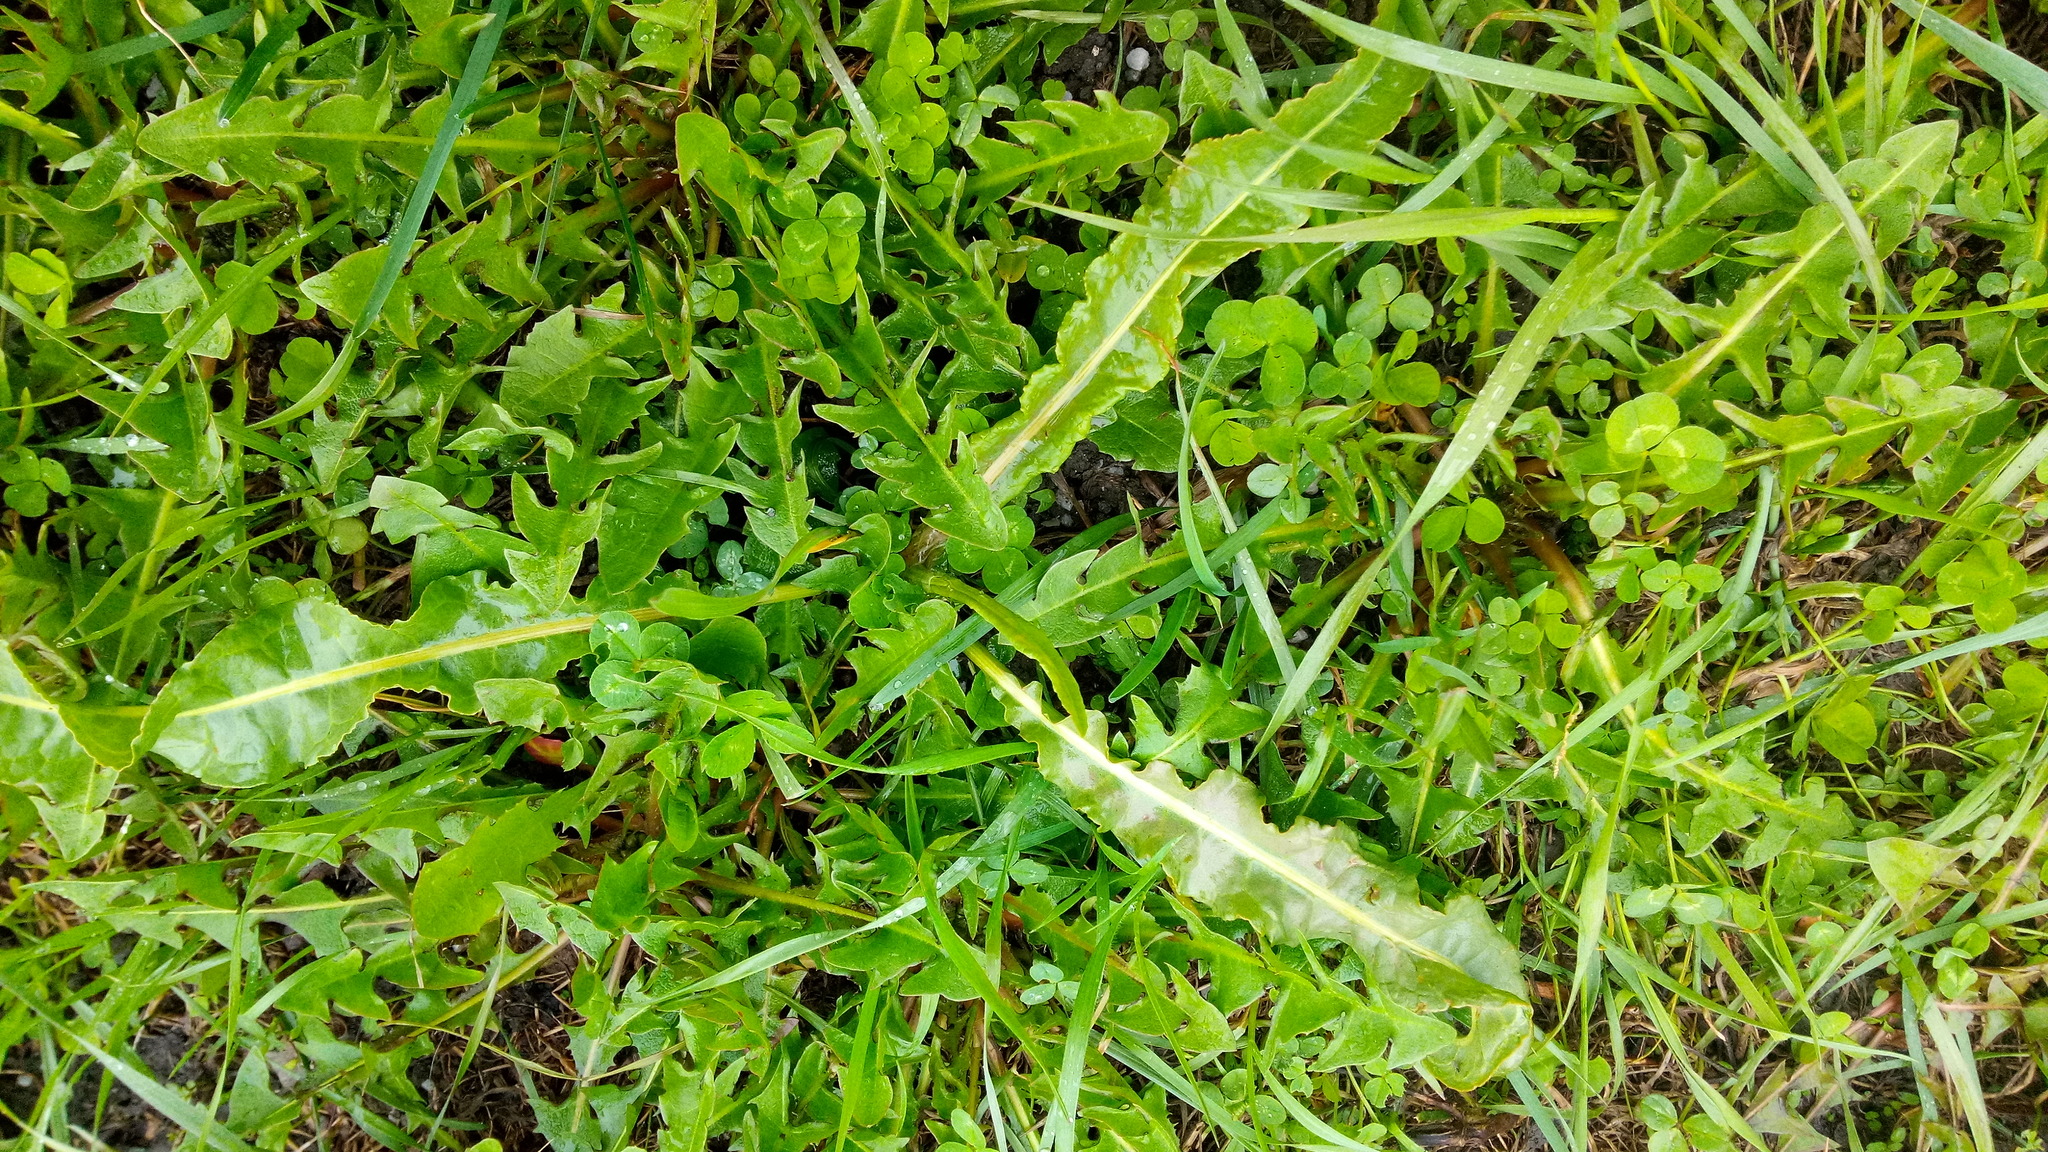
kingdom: Plantae
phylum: Tracheophyta
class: Magnoliopsida
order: Caryophyllales
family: Polygonaceae
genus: Rumex
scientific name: Rumex crispus
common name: Curled dock
